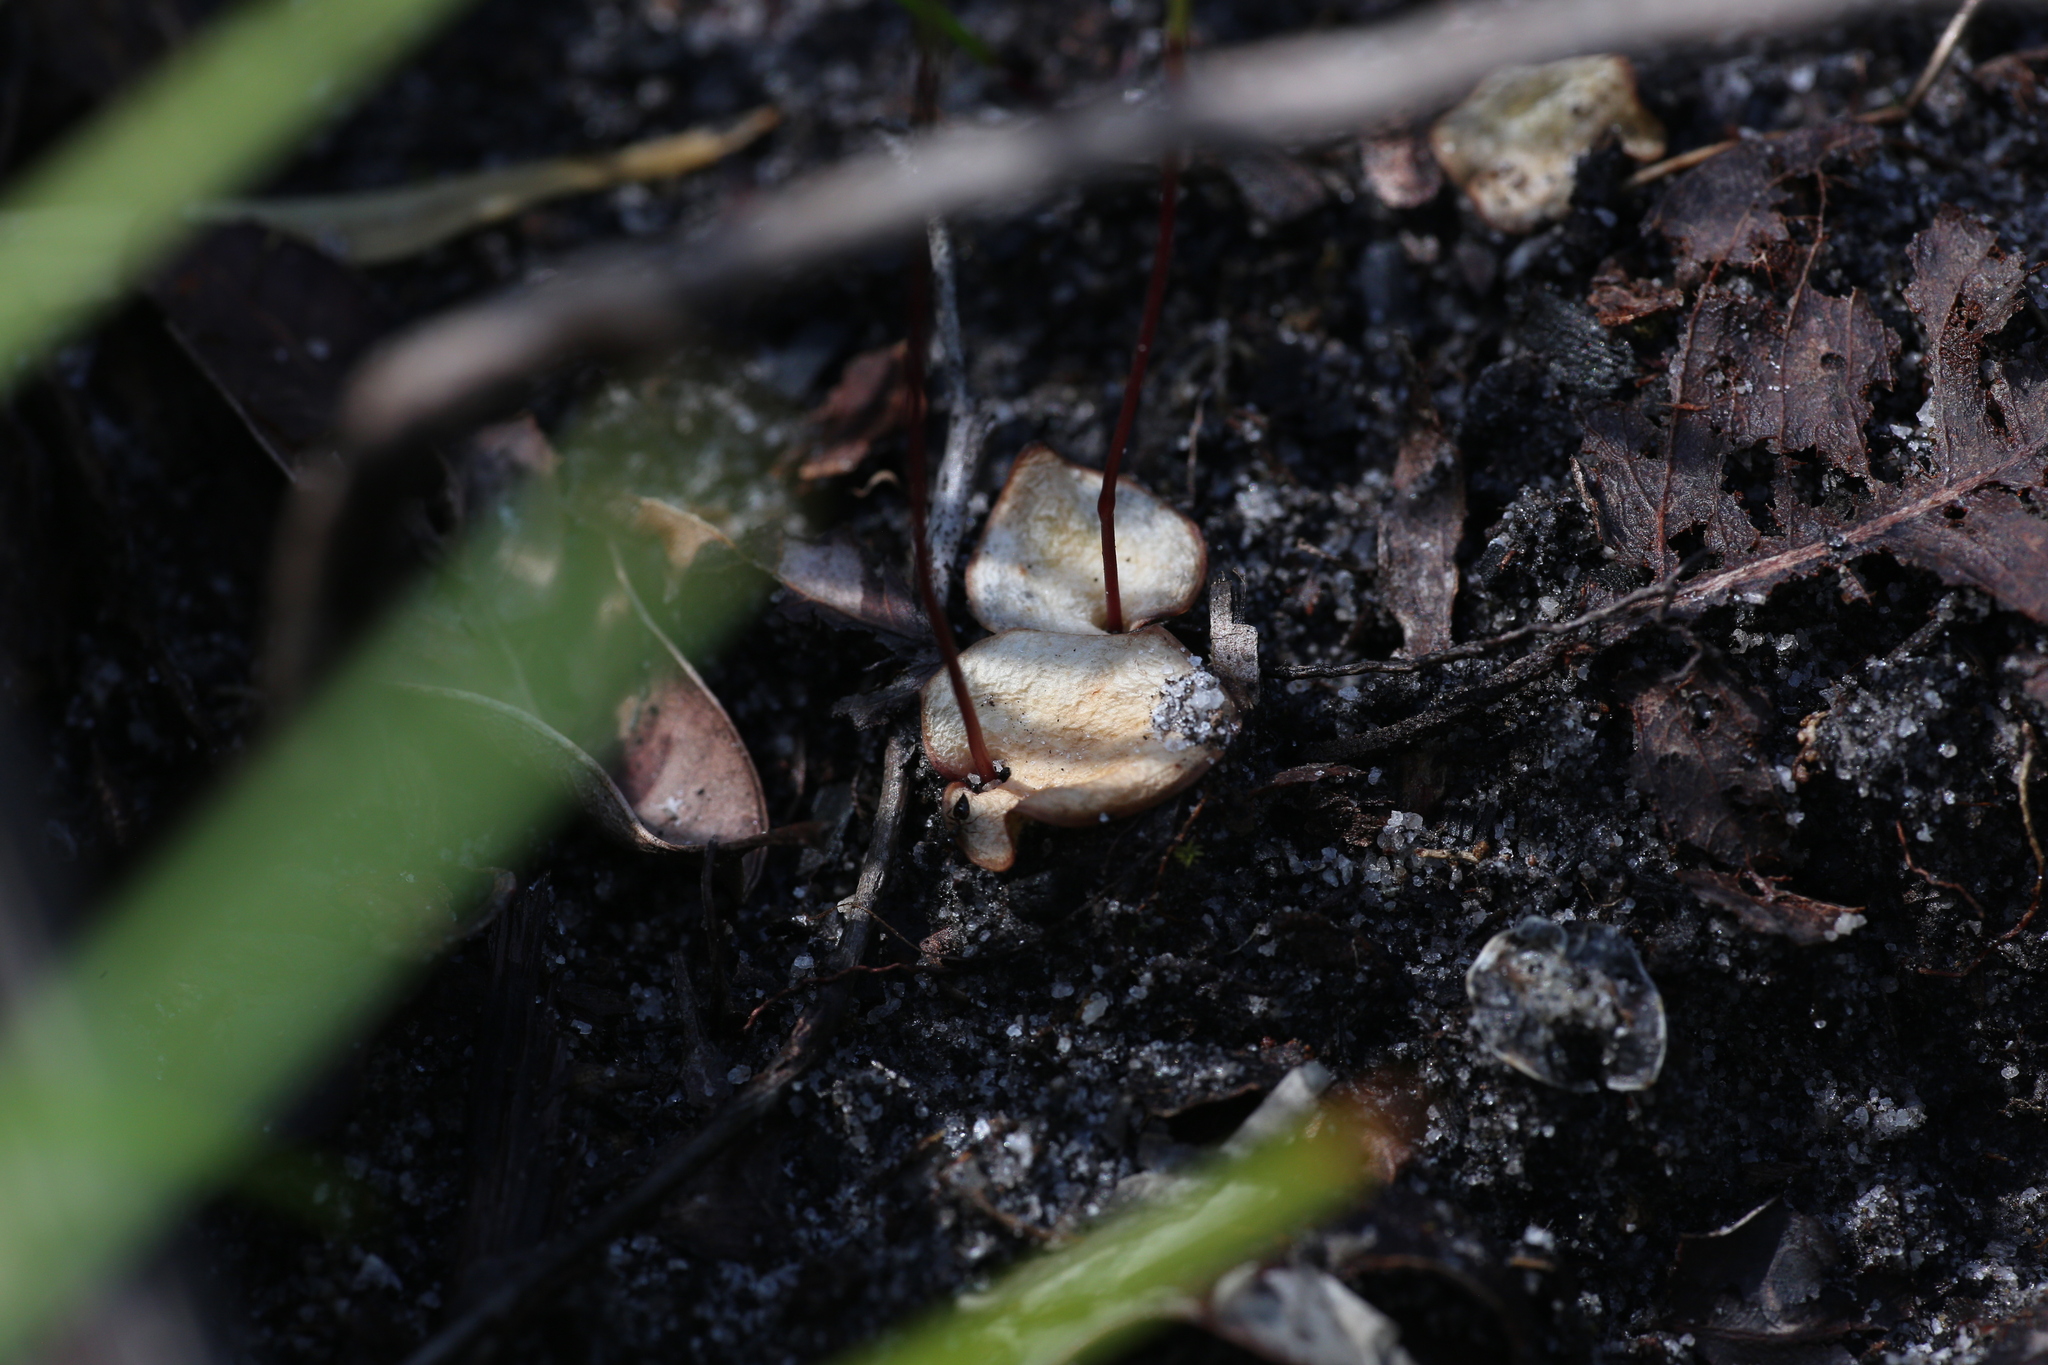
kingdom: Plantae
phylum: Tracheophyta
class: Liliopsida
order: Asparagales
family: Orchidaceae
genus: Drakaea
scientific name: Drakaea gracilis
